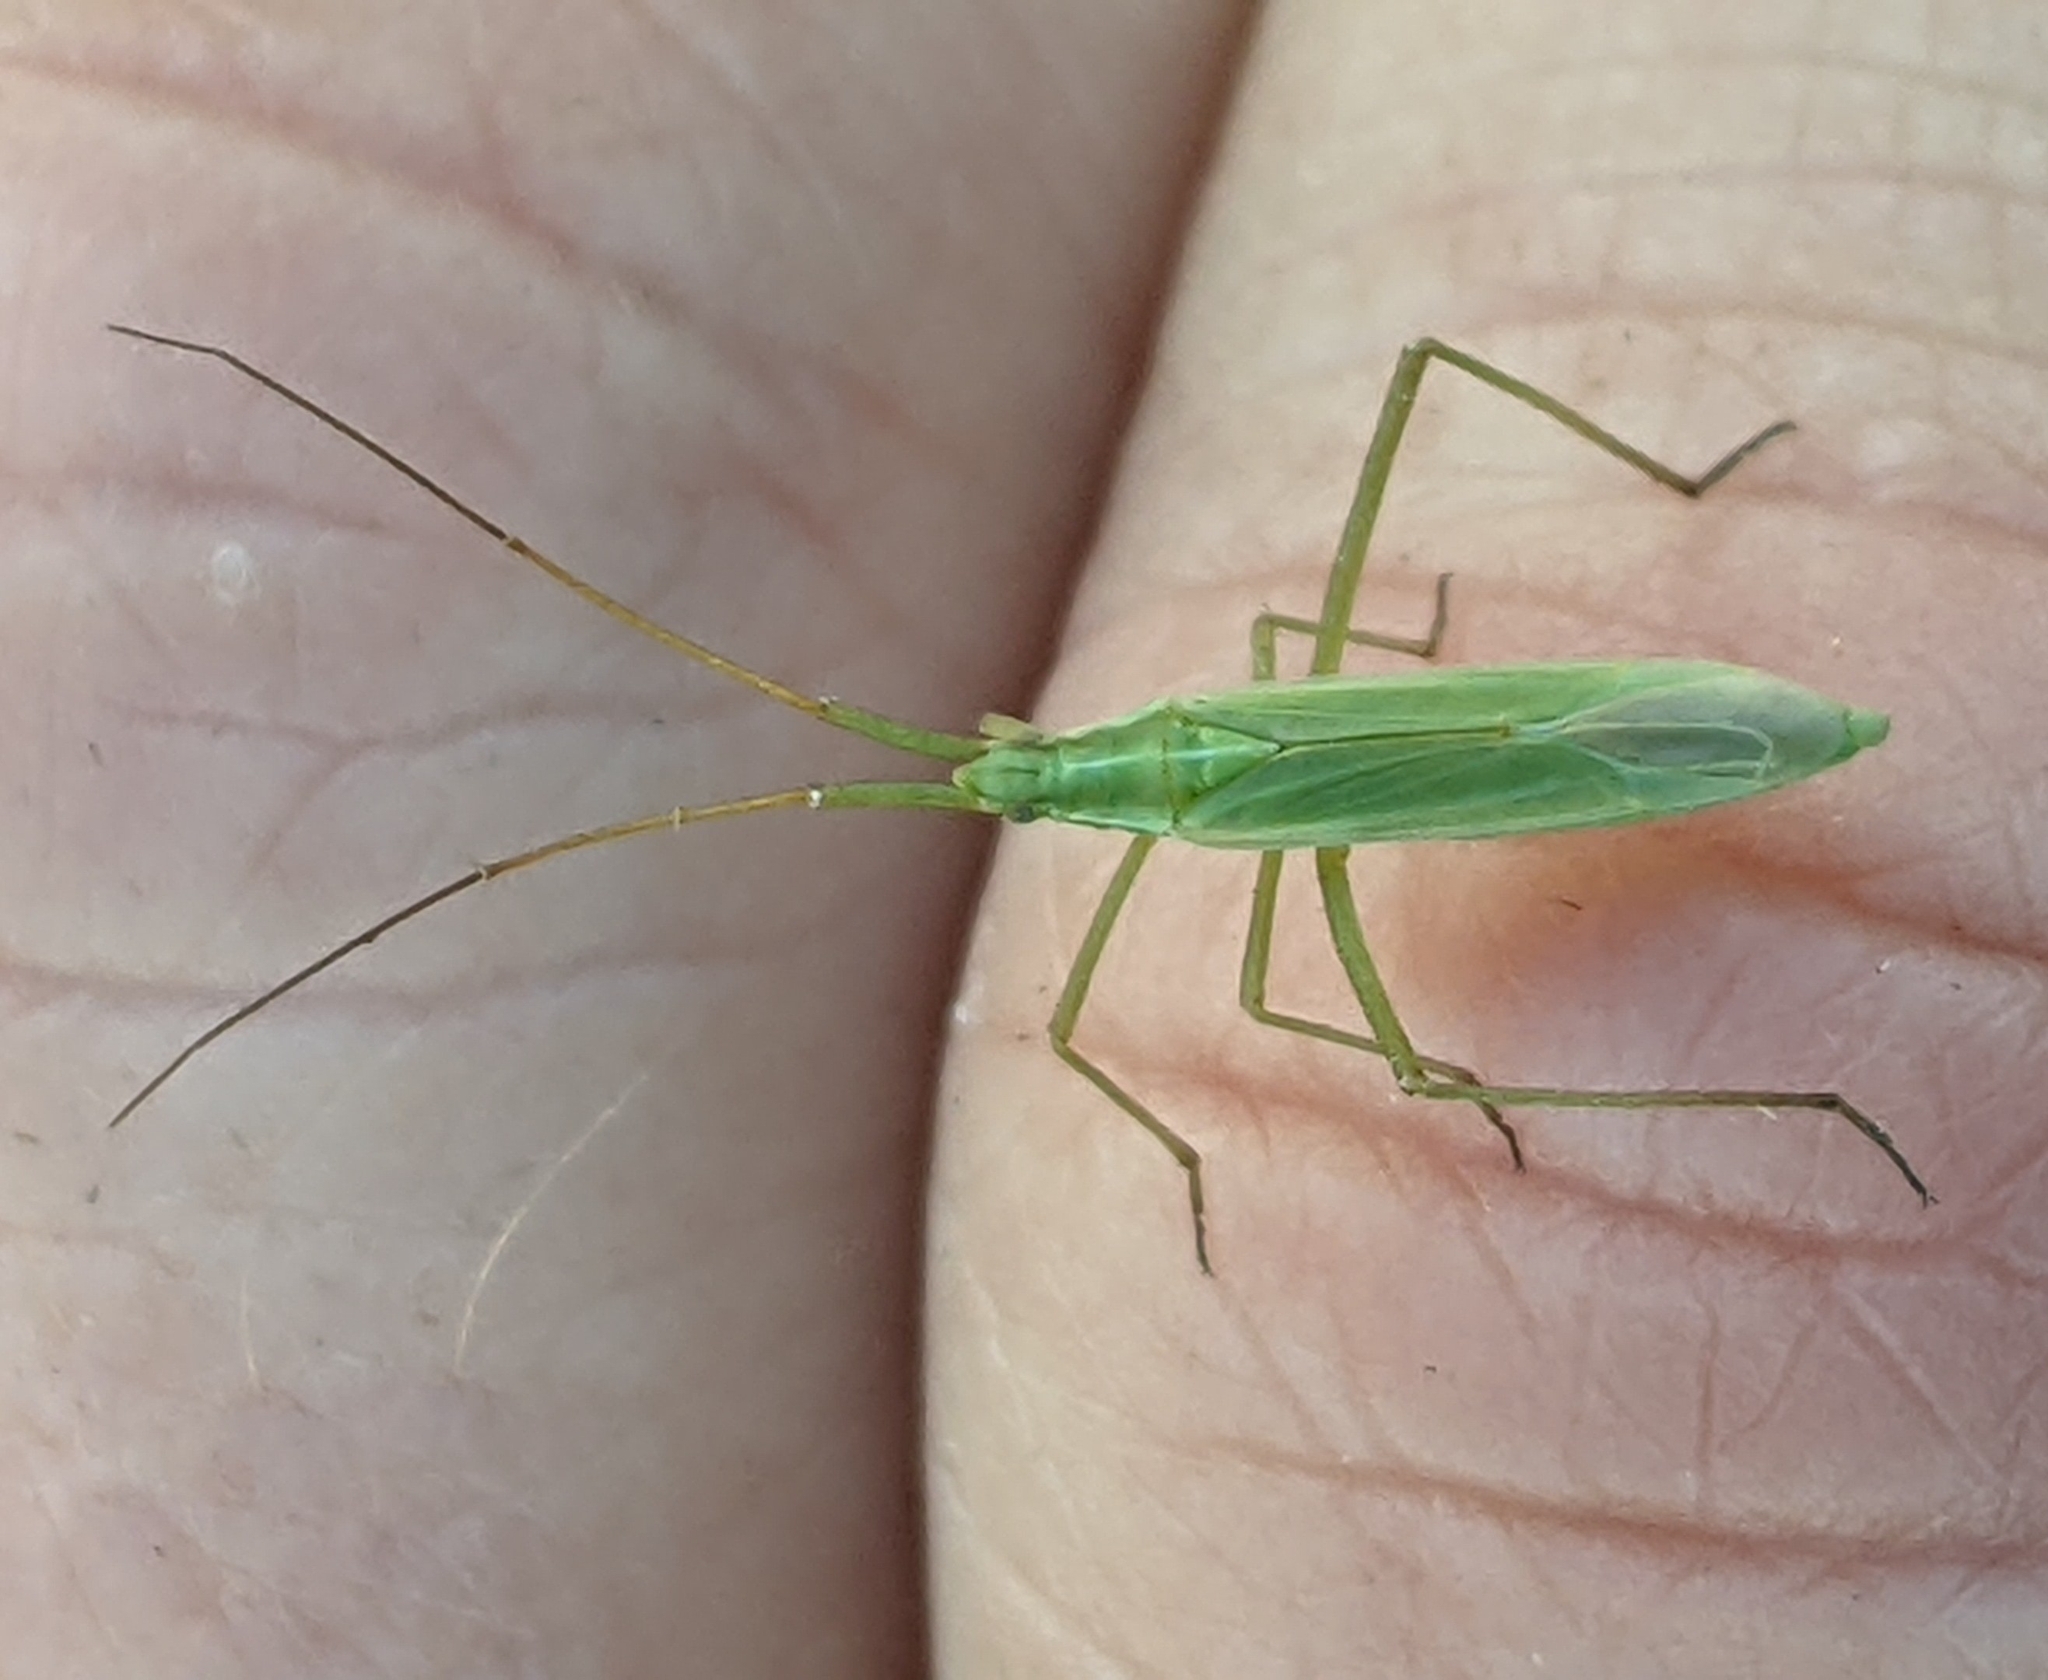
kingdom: Animalia
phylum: Arthropoda
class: Insecta
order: Hemiptera
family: Miridae
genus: Megaloceroea
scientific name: Megaloceroea recticornis
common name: Plant bug
